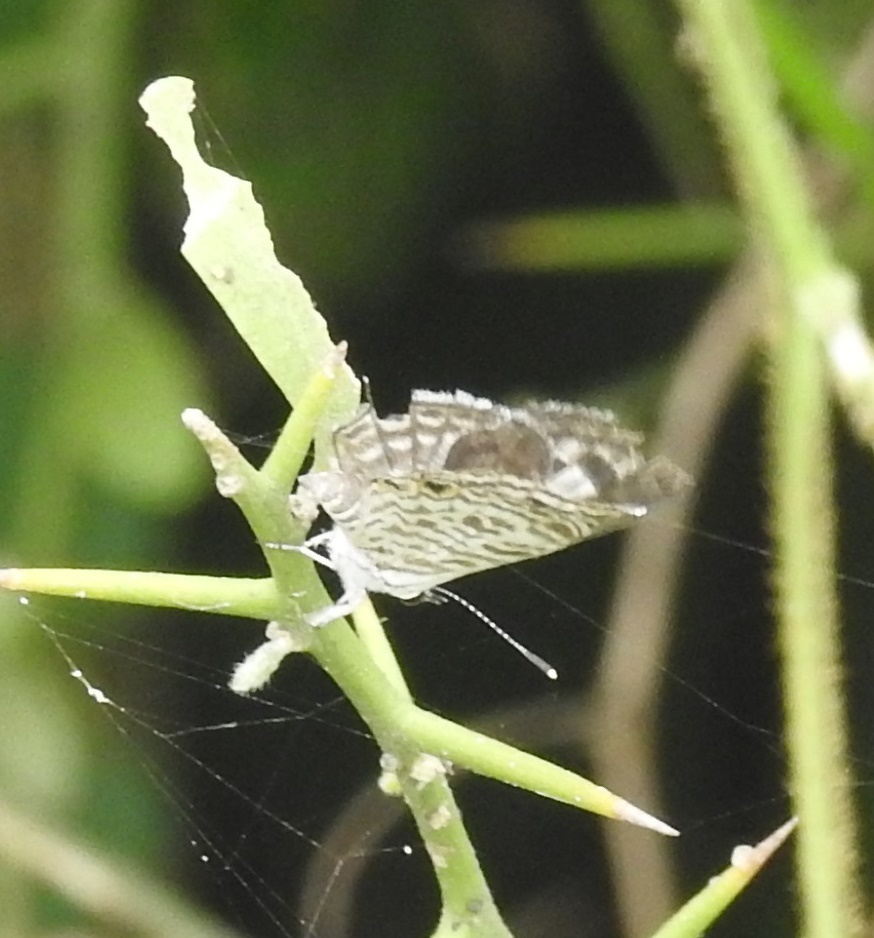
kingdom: Animalia
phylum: Arthropoda
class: Insecta
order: Lepidoptera
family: Lycaenidae
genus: Leptotes
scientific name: Leptotes plinius
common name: Zebra blue
